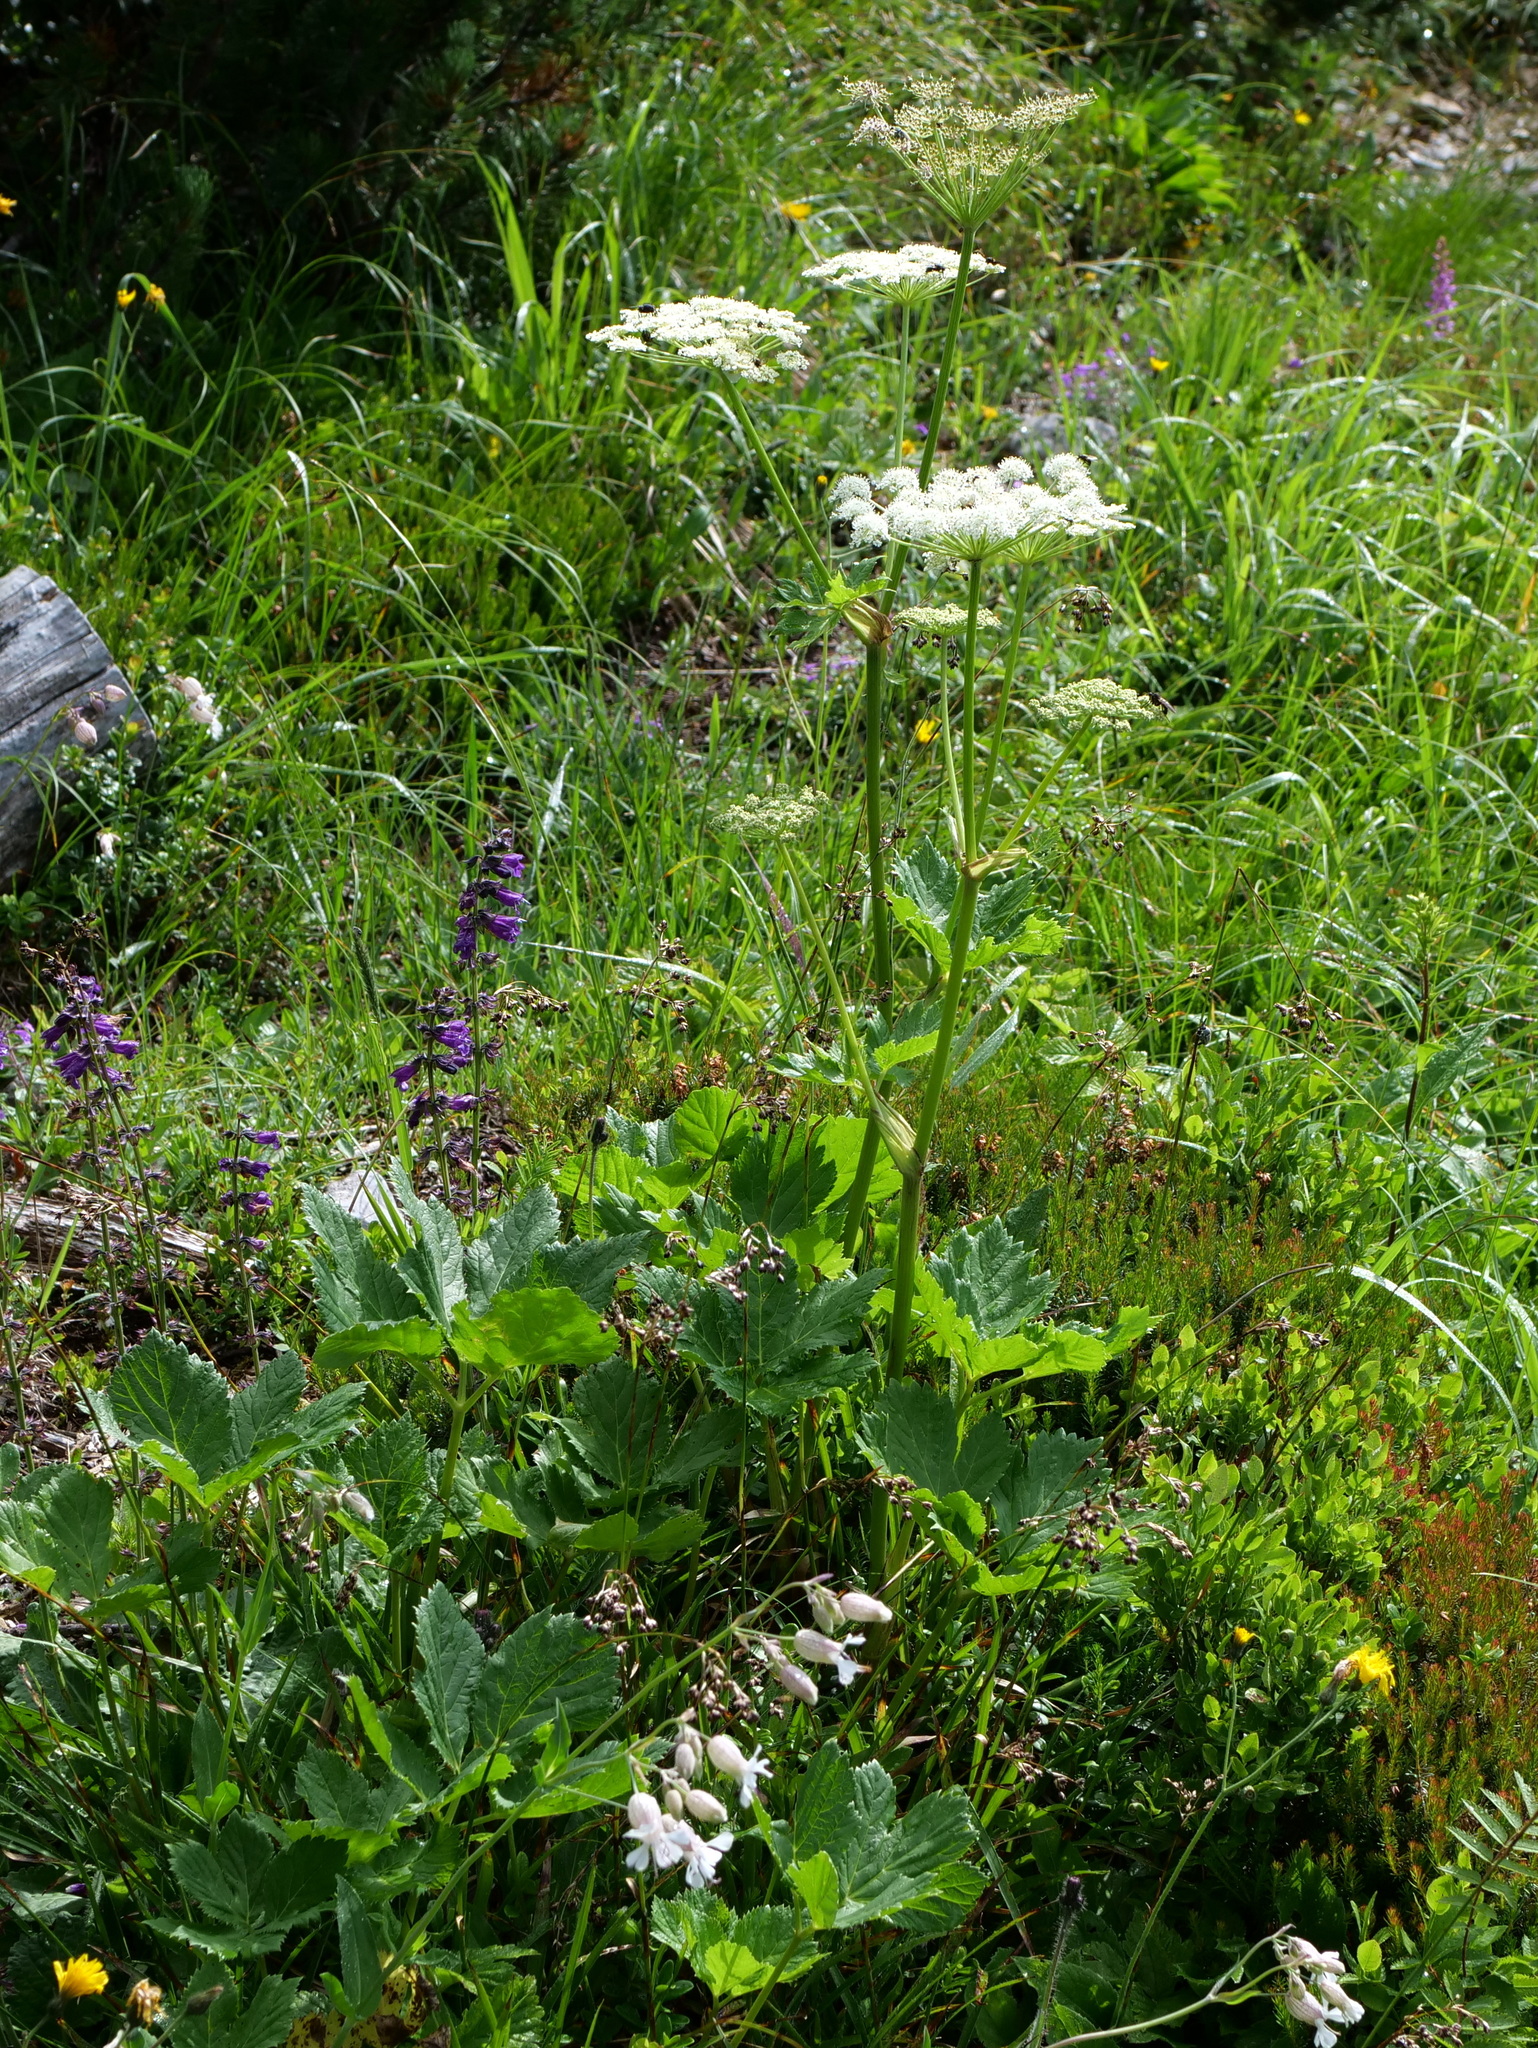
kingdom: Plantae
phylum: Tracheophyta
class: Magnoliopsida
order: Apiales
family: Apiaceae
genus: Imperatoria
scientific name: Imperatoria ostruthium
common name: Masterwort
